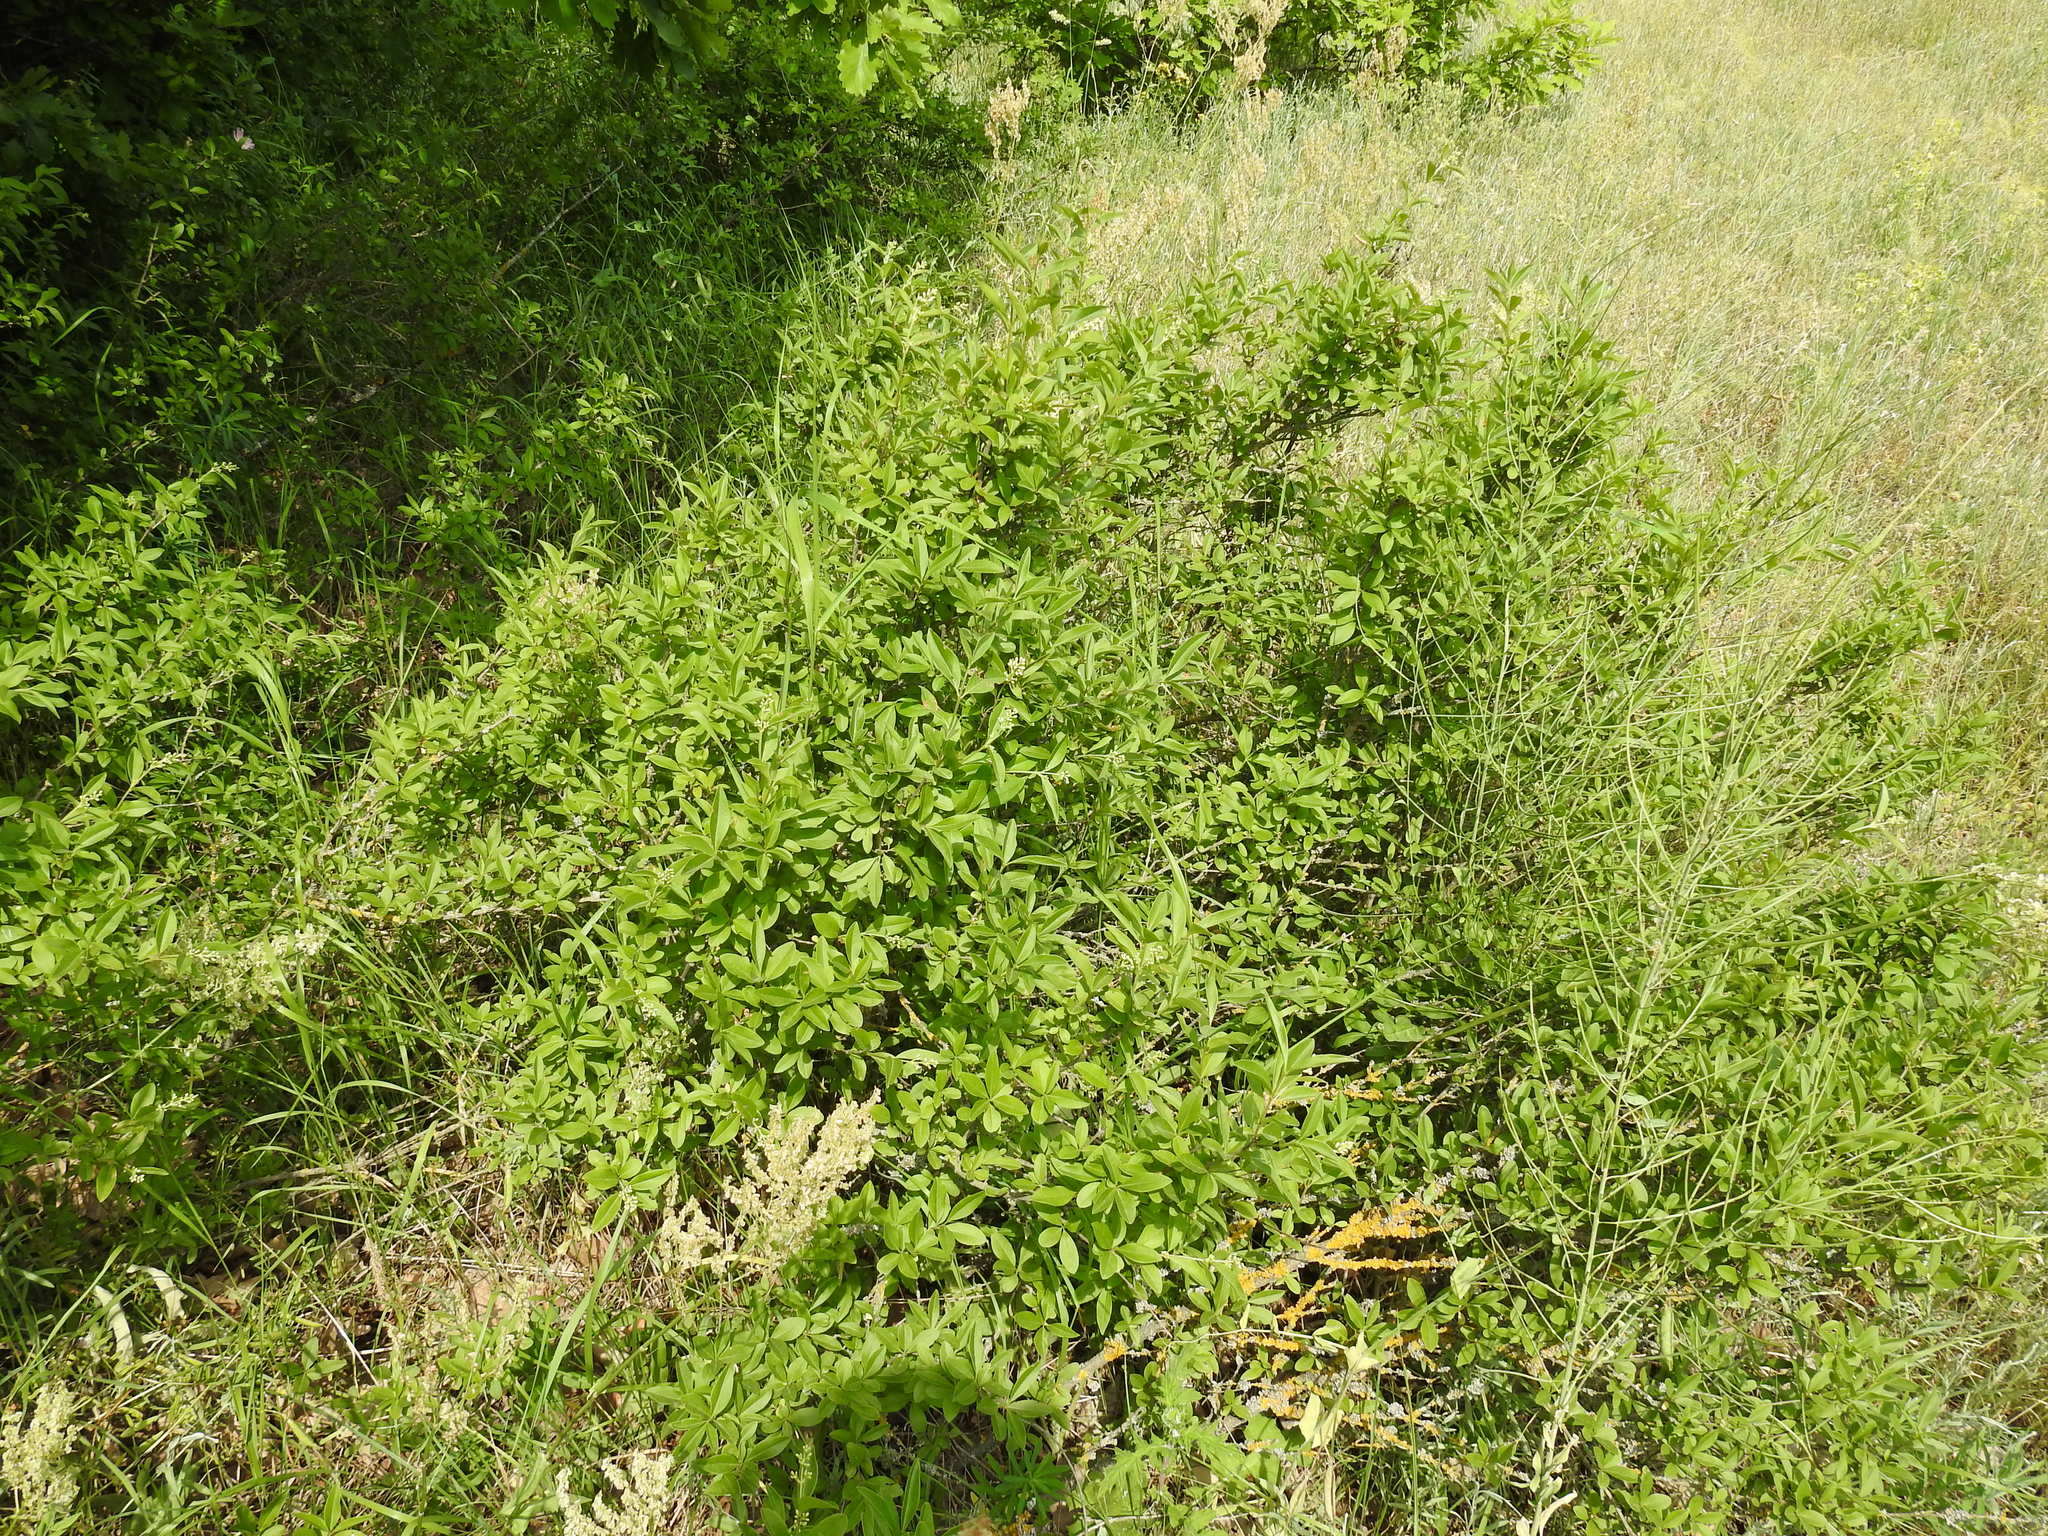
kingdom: Plantae
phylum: Tracheophyta
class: Magnoliopsida
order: Lamiales
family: Oleaceae
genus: Ligustrum
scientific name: Ligustrum vulgare
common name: Wild privet
